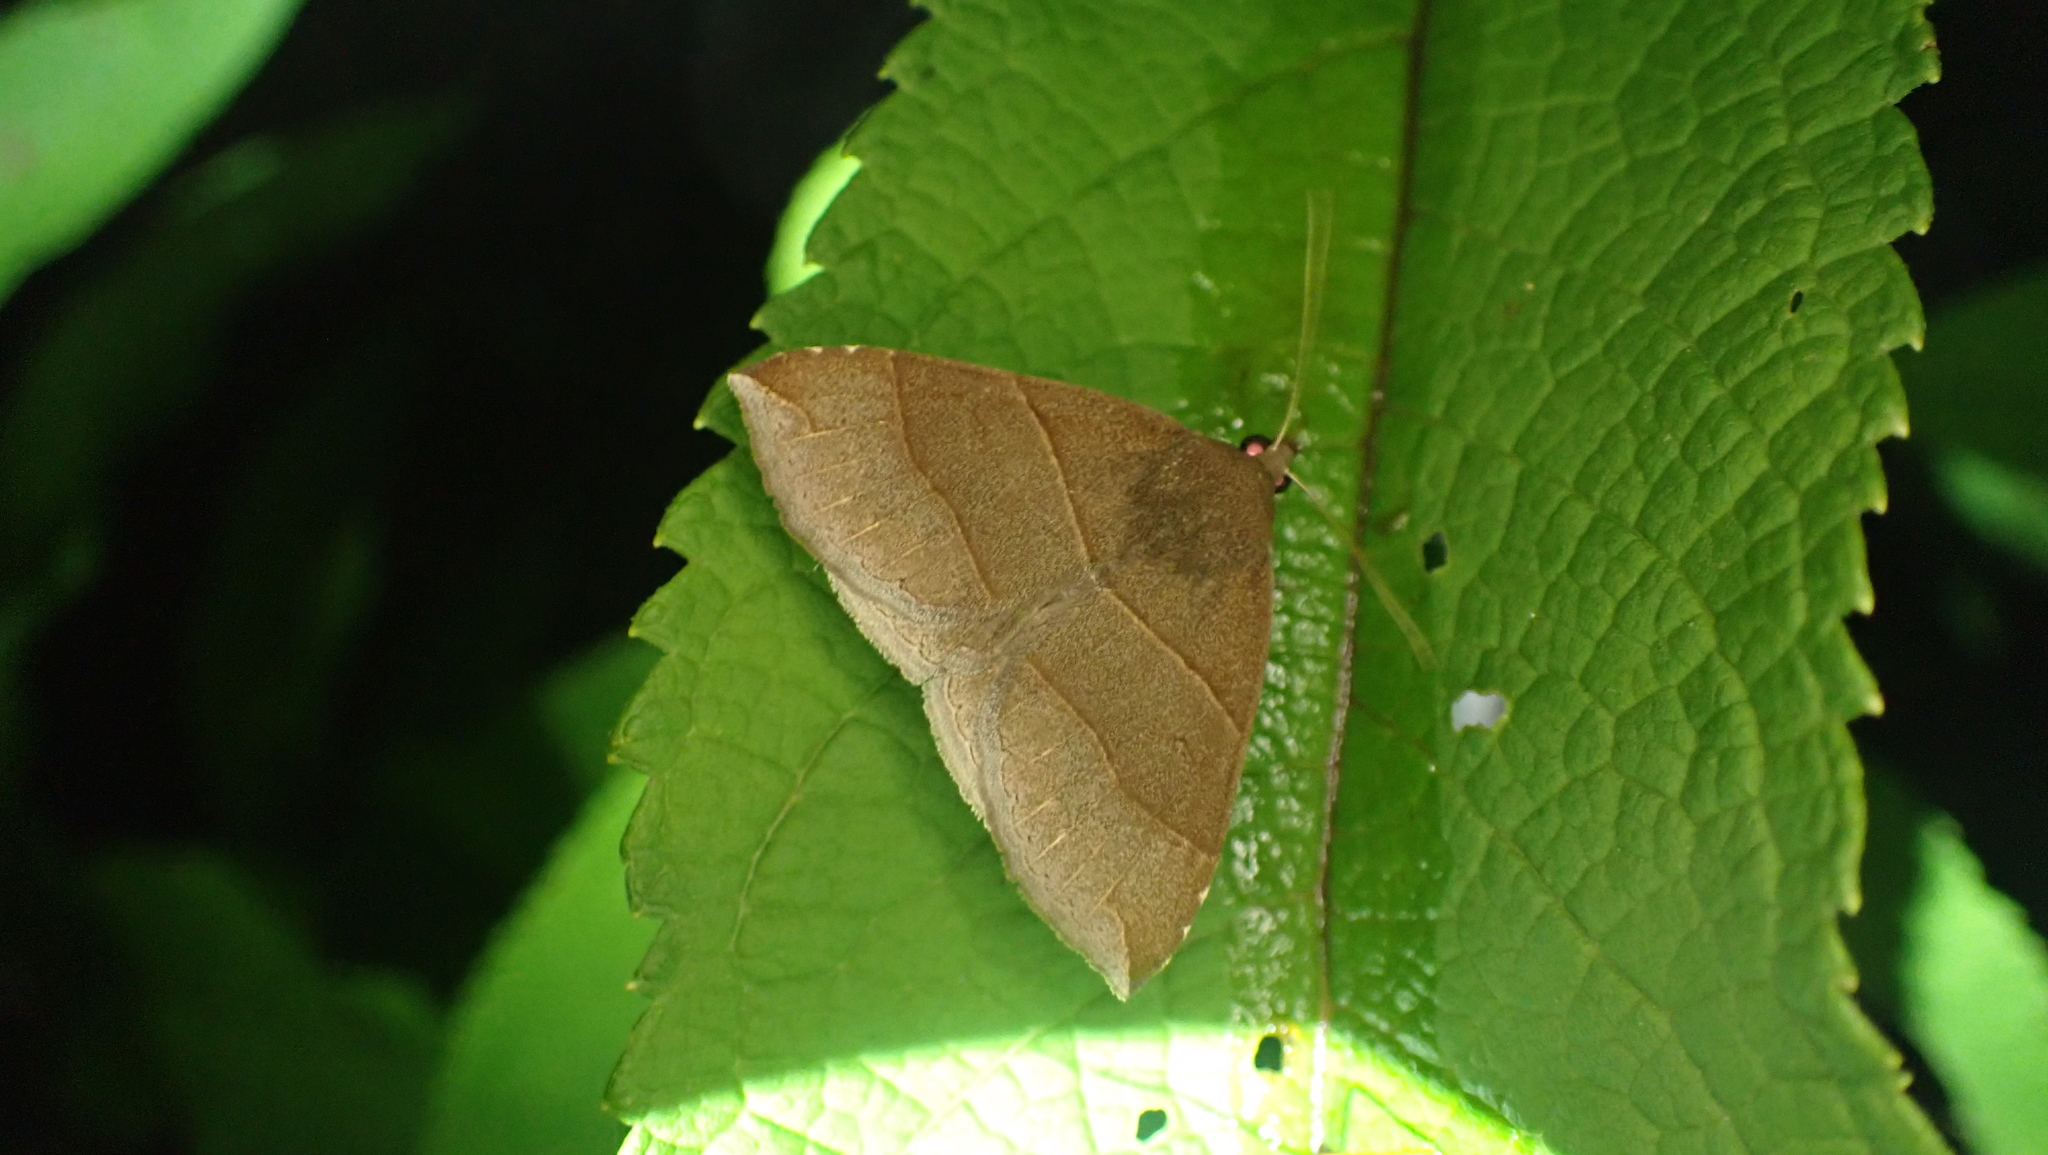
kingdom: Animalia
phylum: Arthropoda
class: Insecta
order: Lepidoptera
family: Erebidae
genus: Parallelia
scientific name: Parallelia bistriaris
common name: Maple looper moth
